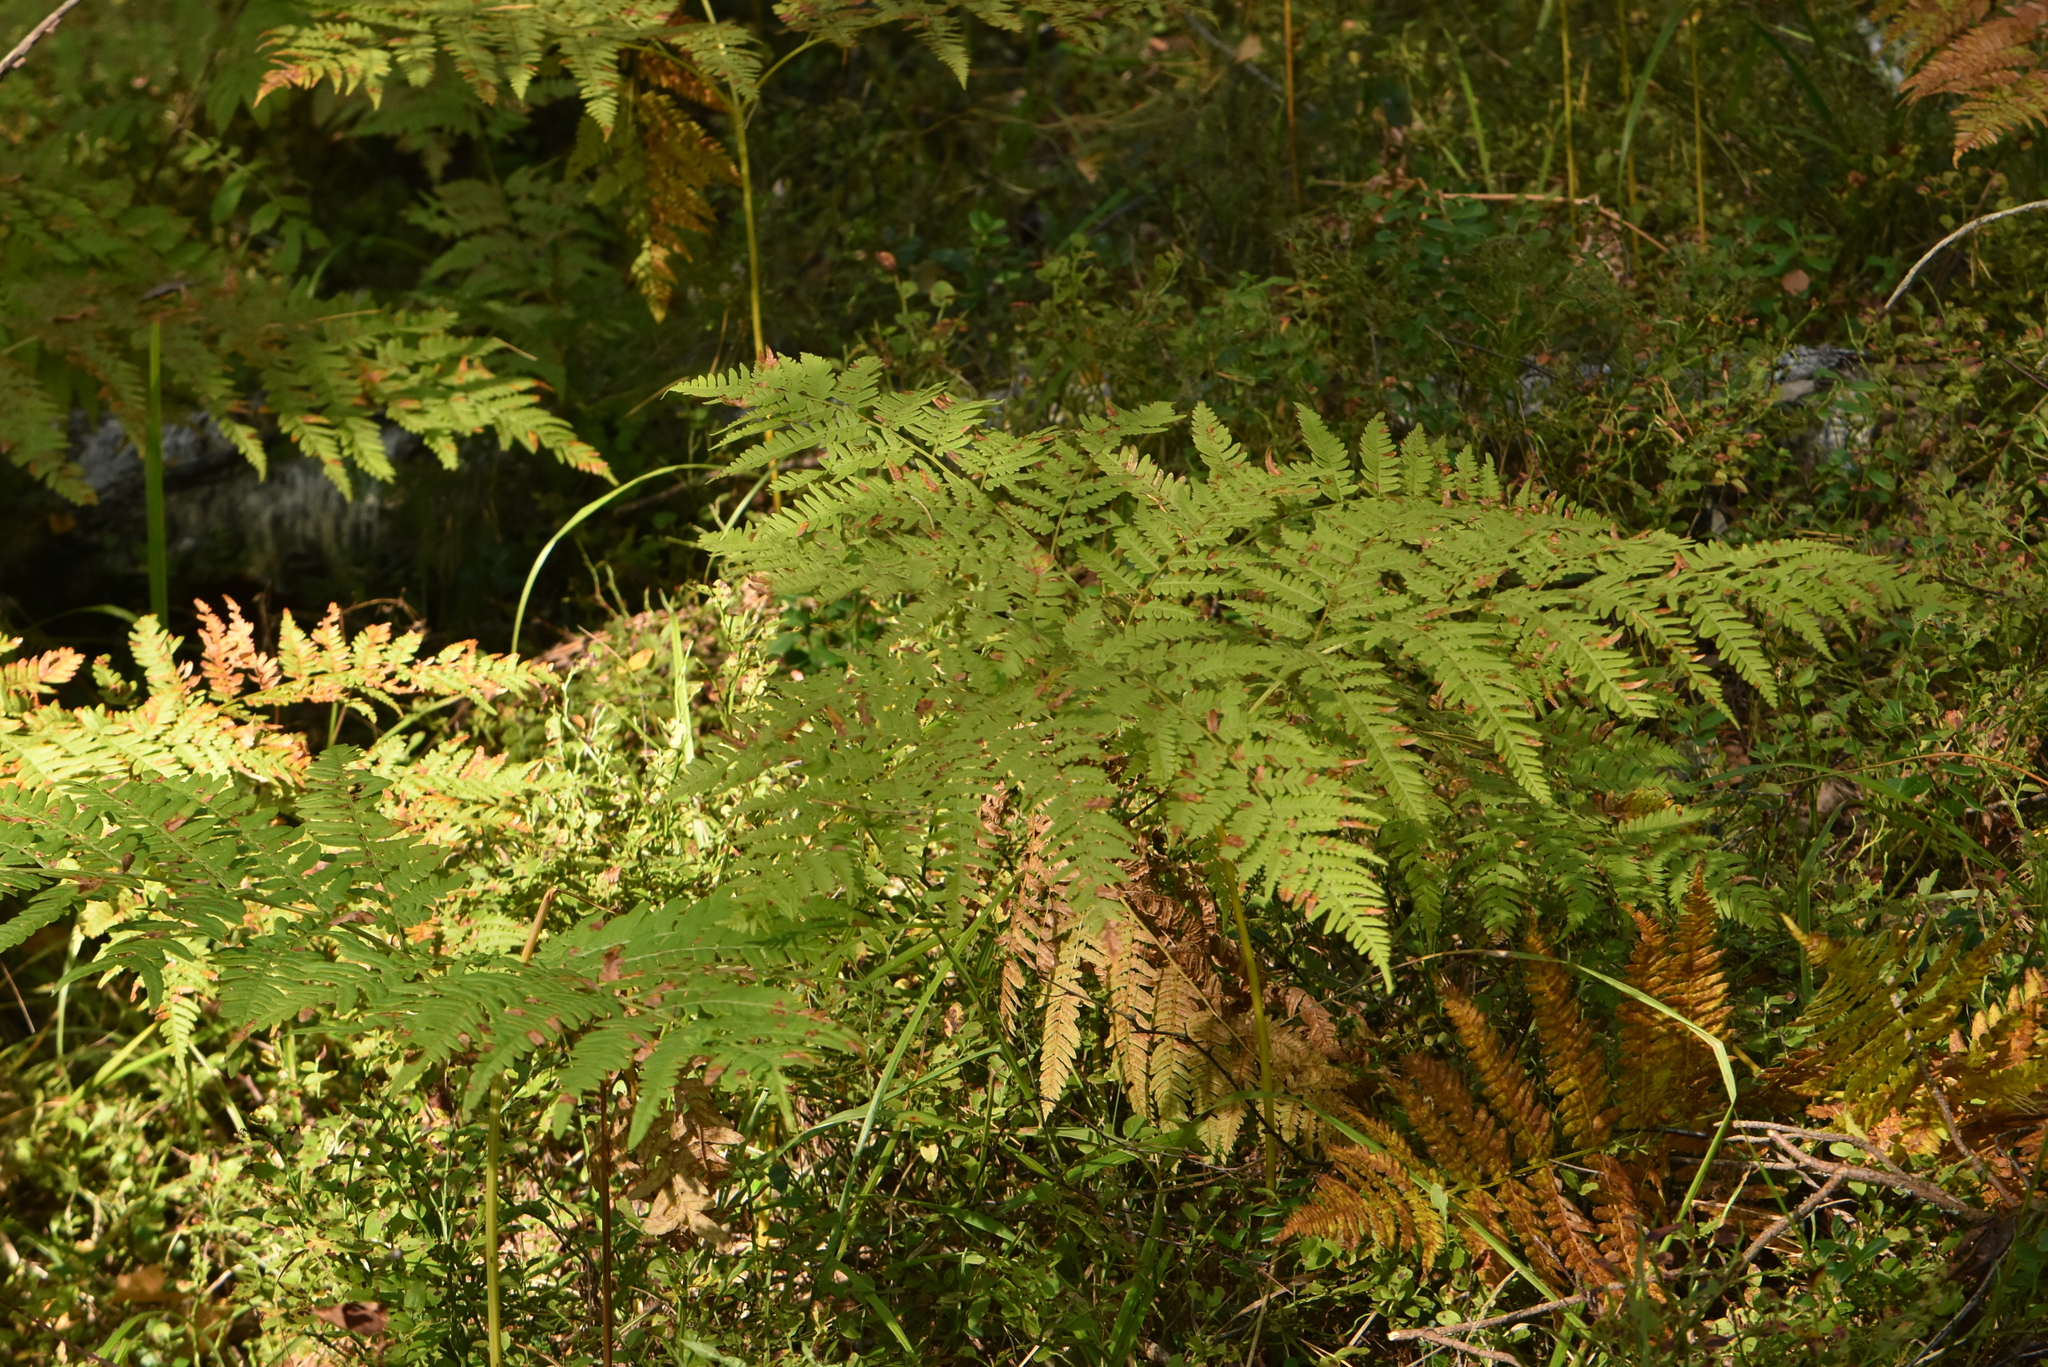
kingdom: Plantae
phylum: Tracheophyta
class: Polypodiopsida
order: Polypodiales
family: Dennstaedtiaceae
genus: Pteridium
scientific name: Pteridium aquilinum
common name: Bracken
